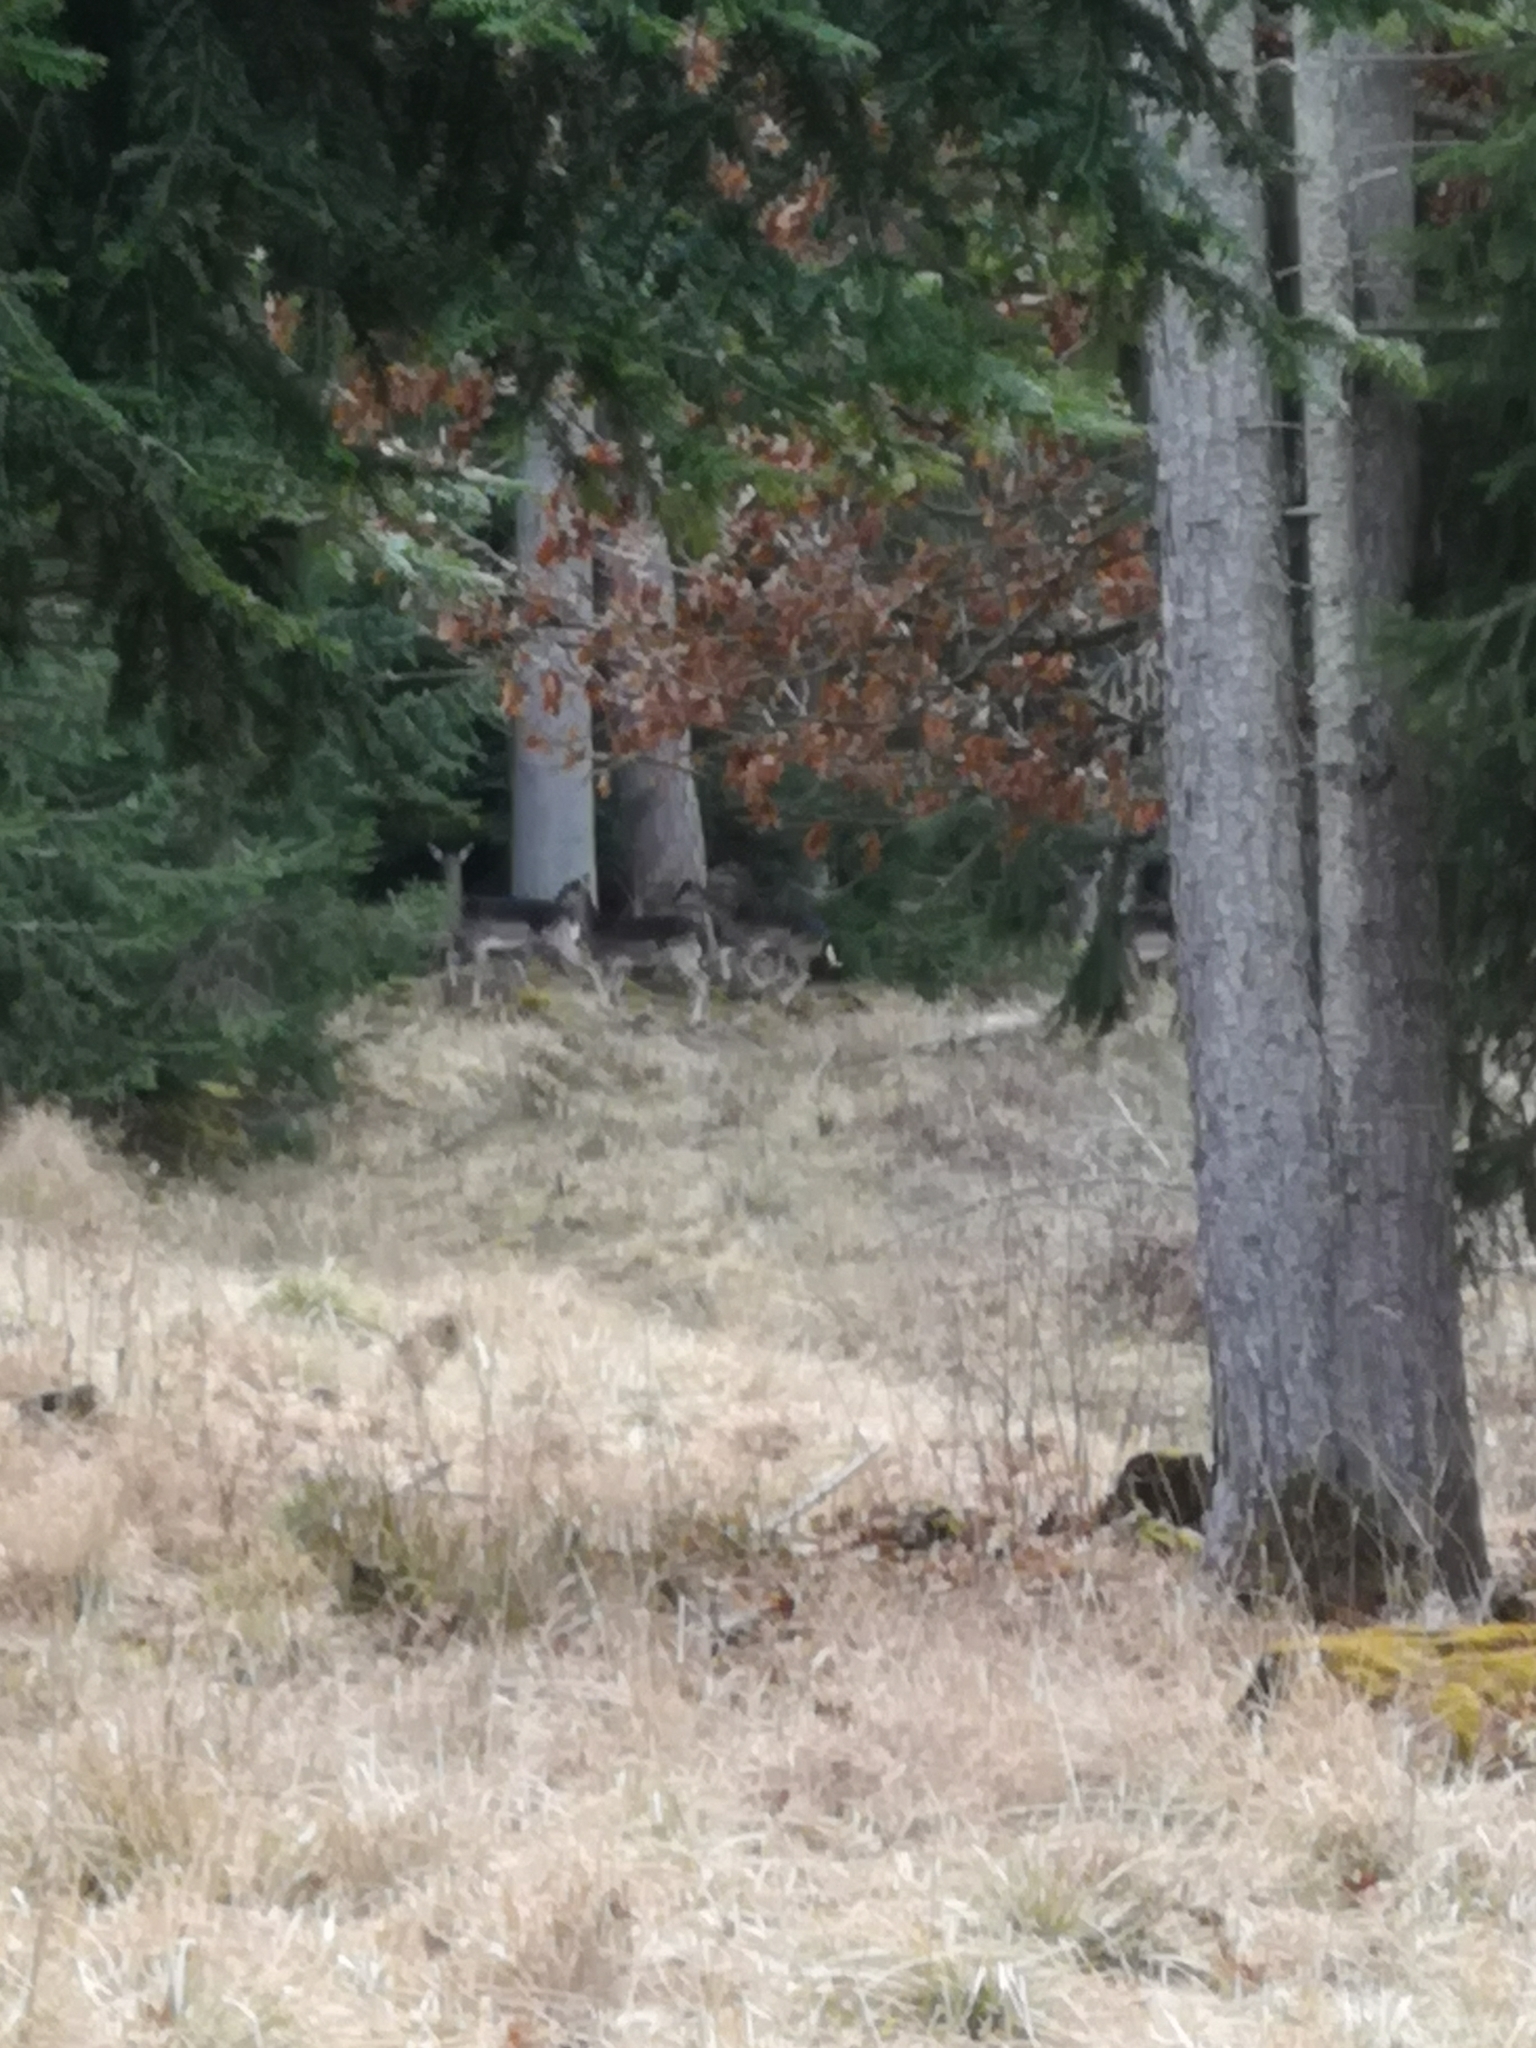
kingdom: Animalia
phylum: Chordata
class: Mammalia
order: Artiodactyla
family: Cervidae
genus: Dama
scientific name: Dama dama
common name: Fallow deer
